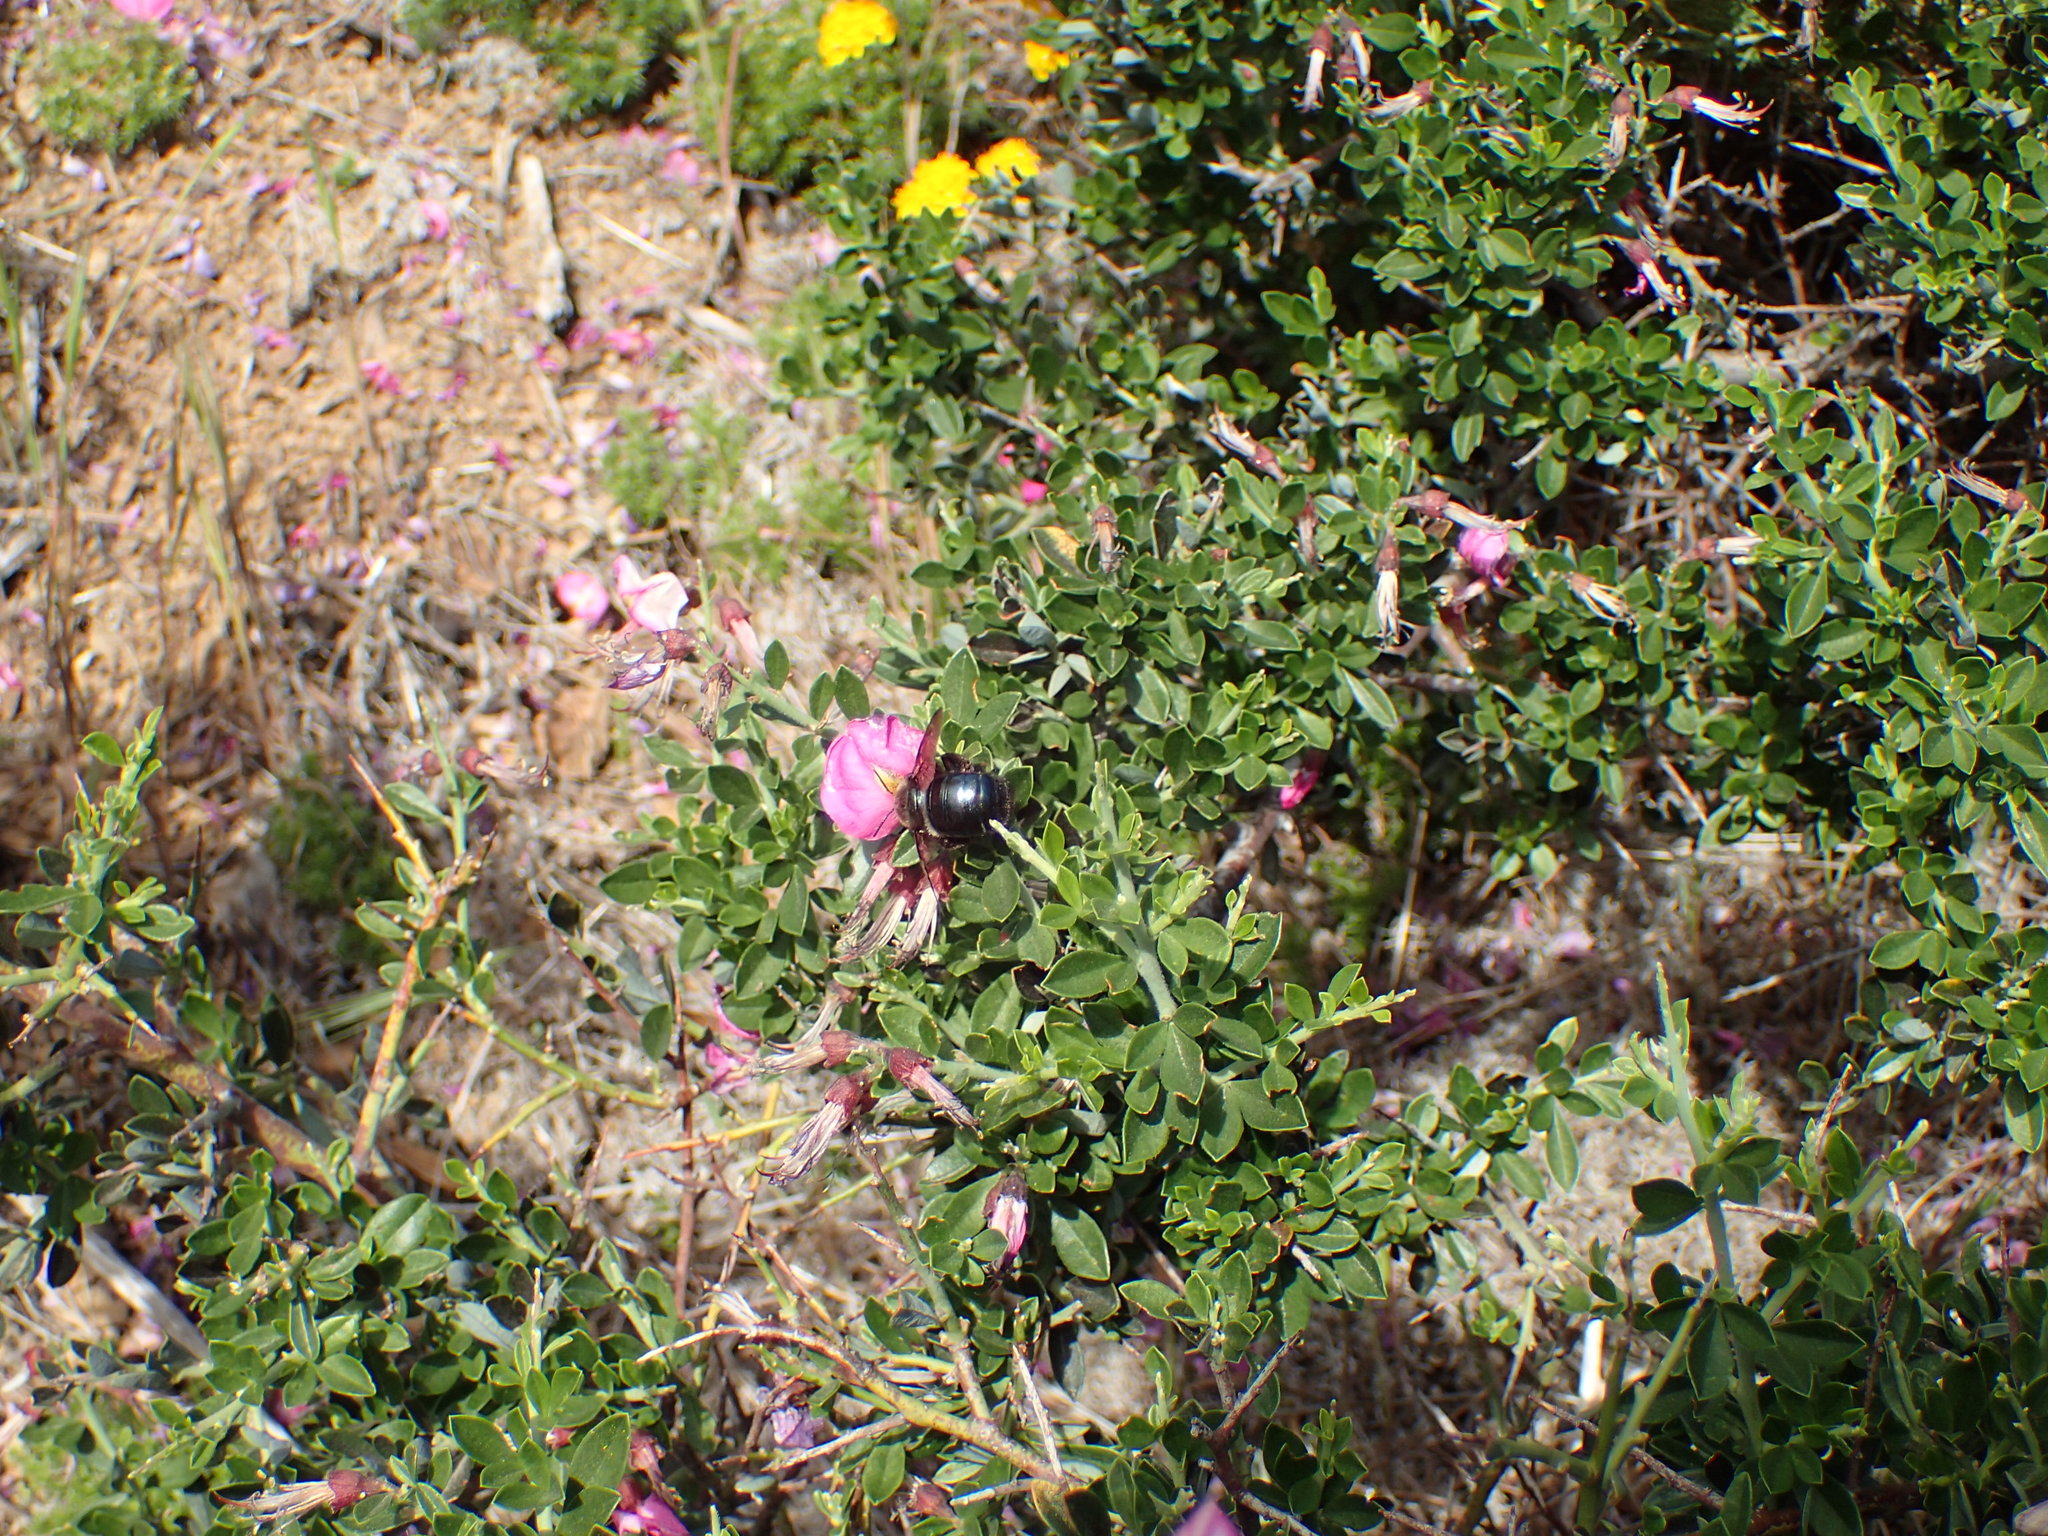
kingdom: Animalia
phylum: Arthropoda
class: Insecta
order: Hymenoptera
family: Apidae
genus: Xylocopa
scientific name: Xylocopa tabaniformis
